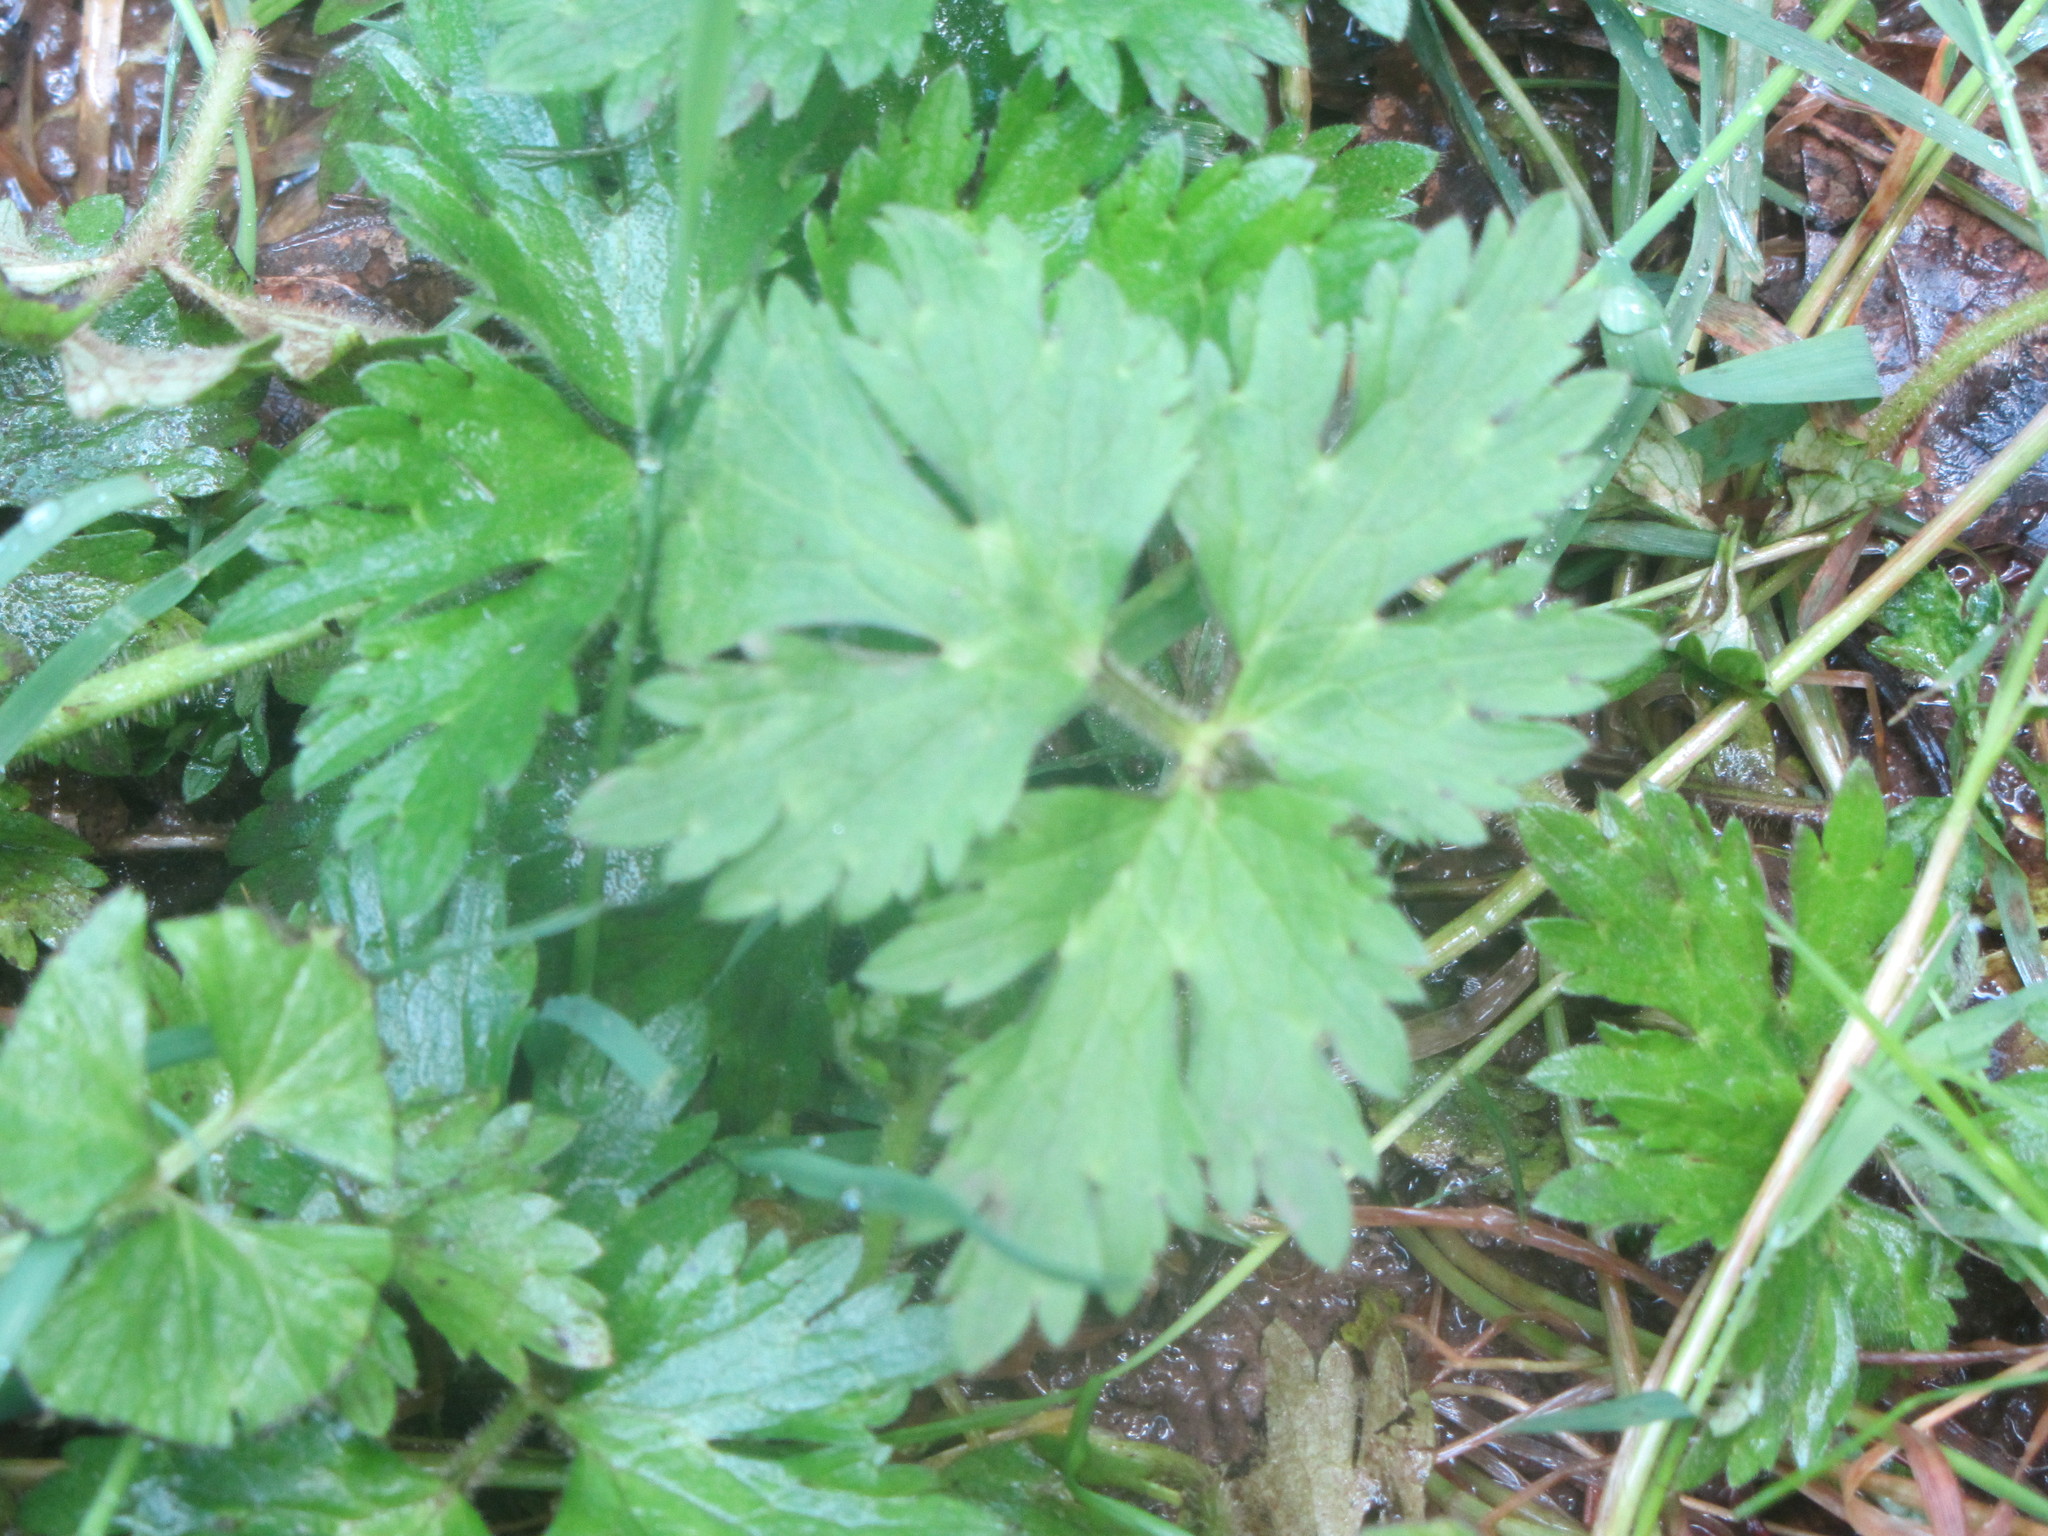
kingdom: Plantae
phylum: Tracheophyta
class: Magnoliopsida
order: Ranunculales
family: Ranunculaceae
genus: Ranunculus
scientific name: Ranunculus repens
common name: Creeping buttercup
